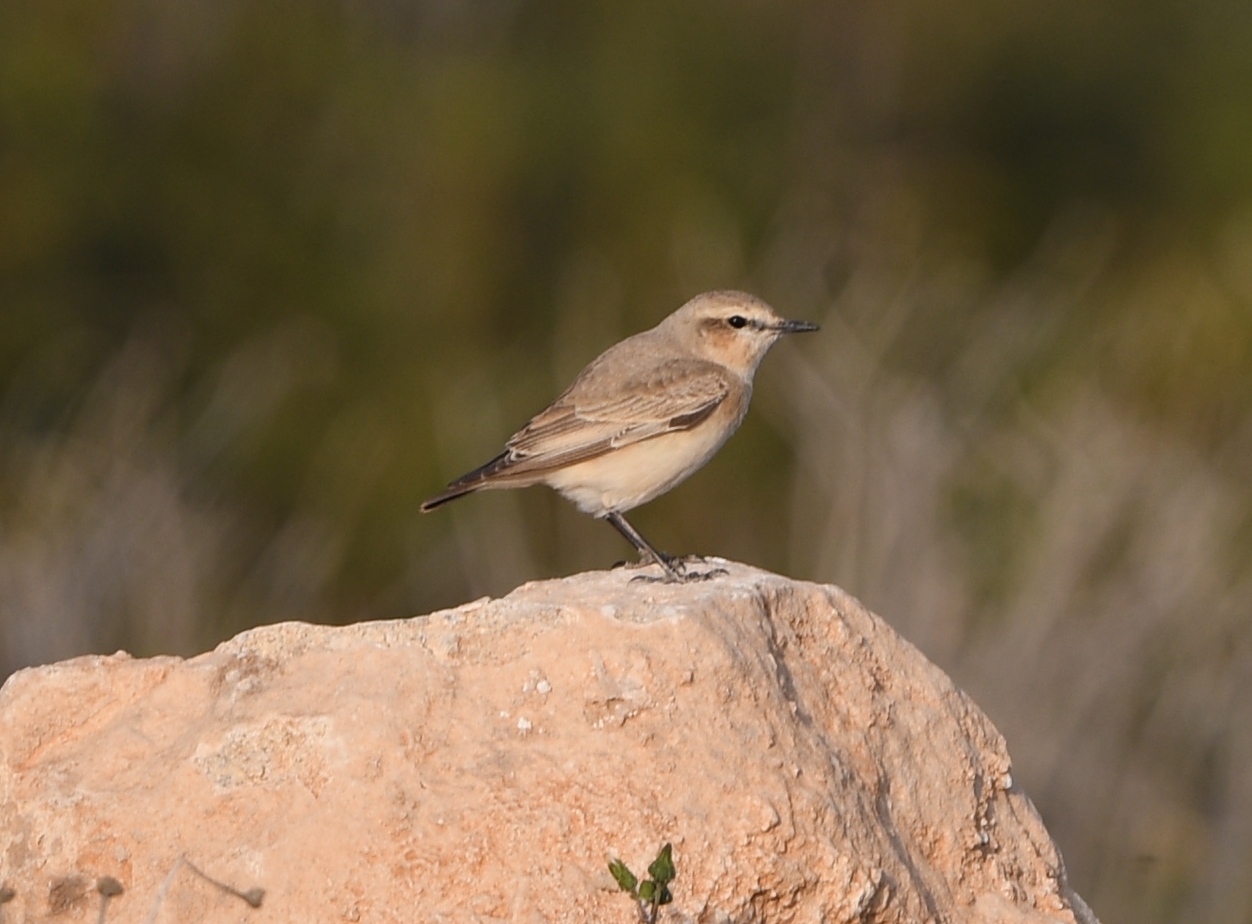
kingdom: Animalia
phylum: Chordata
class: Aves
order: Passeriformes
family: Muscicapidae
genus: Oenanthe
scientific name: Oenanthe isabellina
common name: Isabelline wheatear
